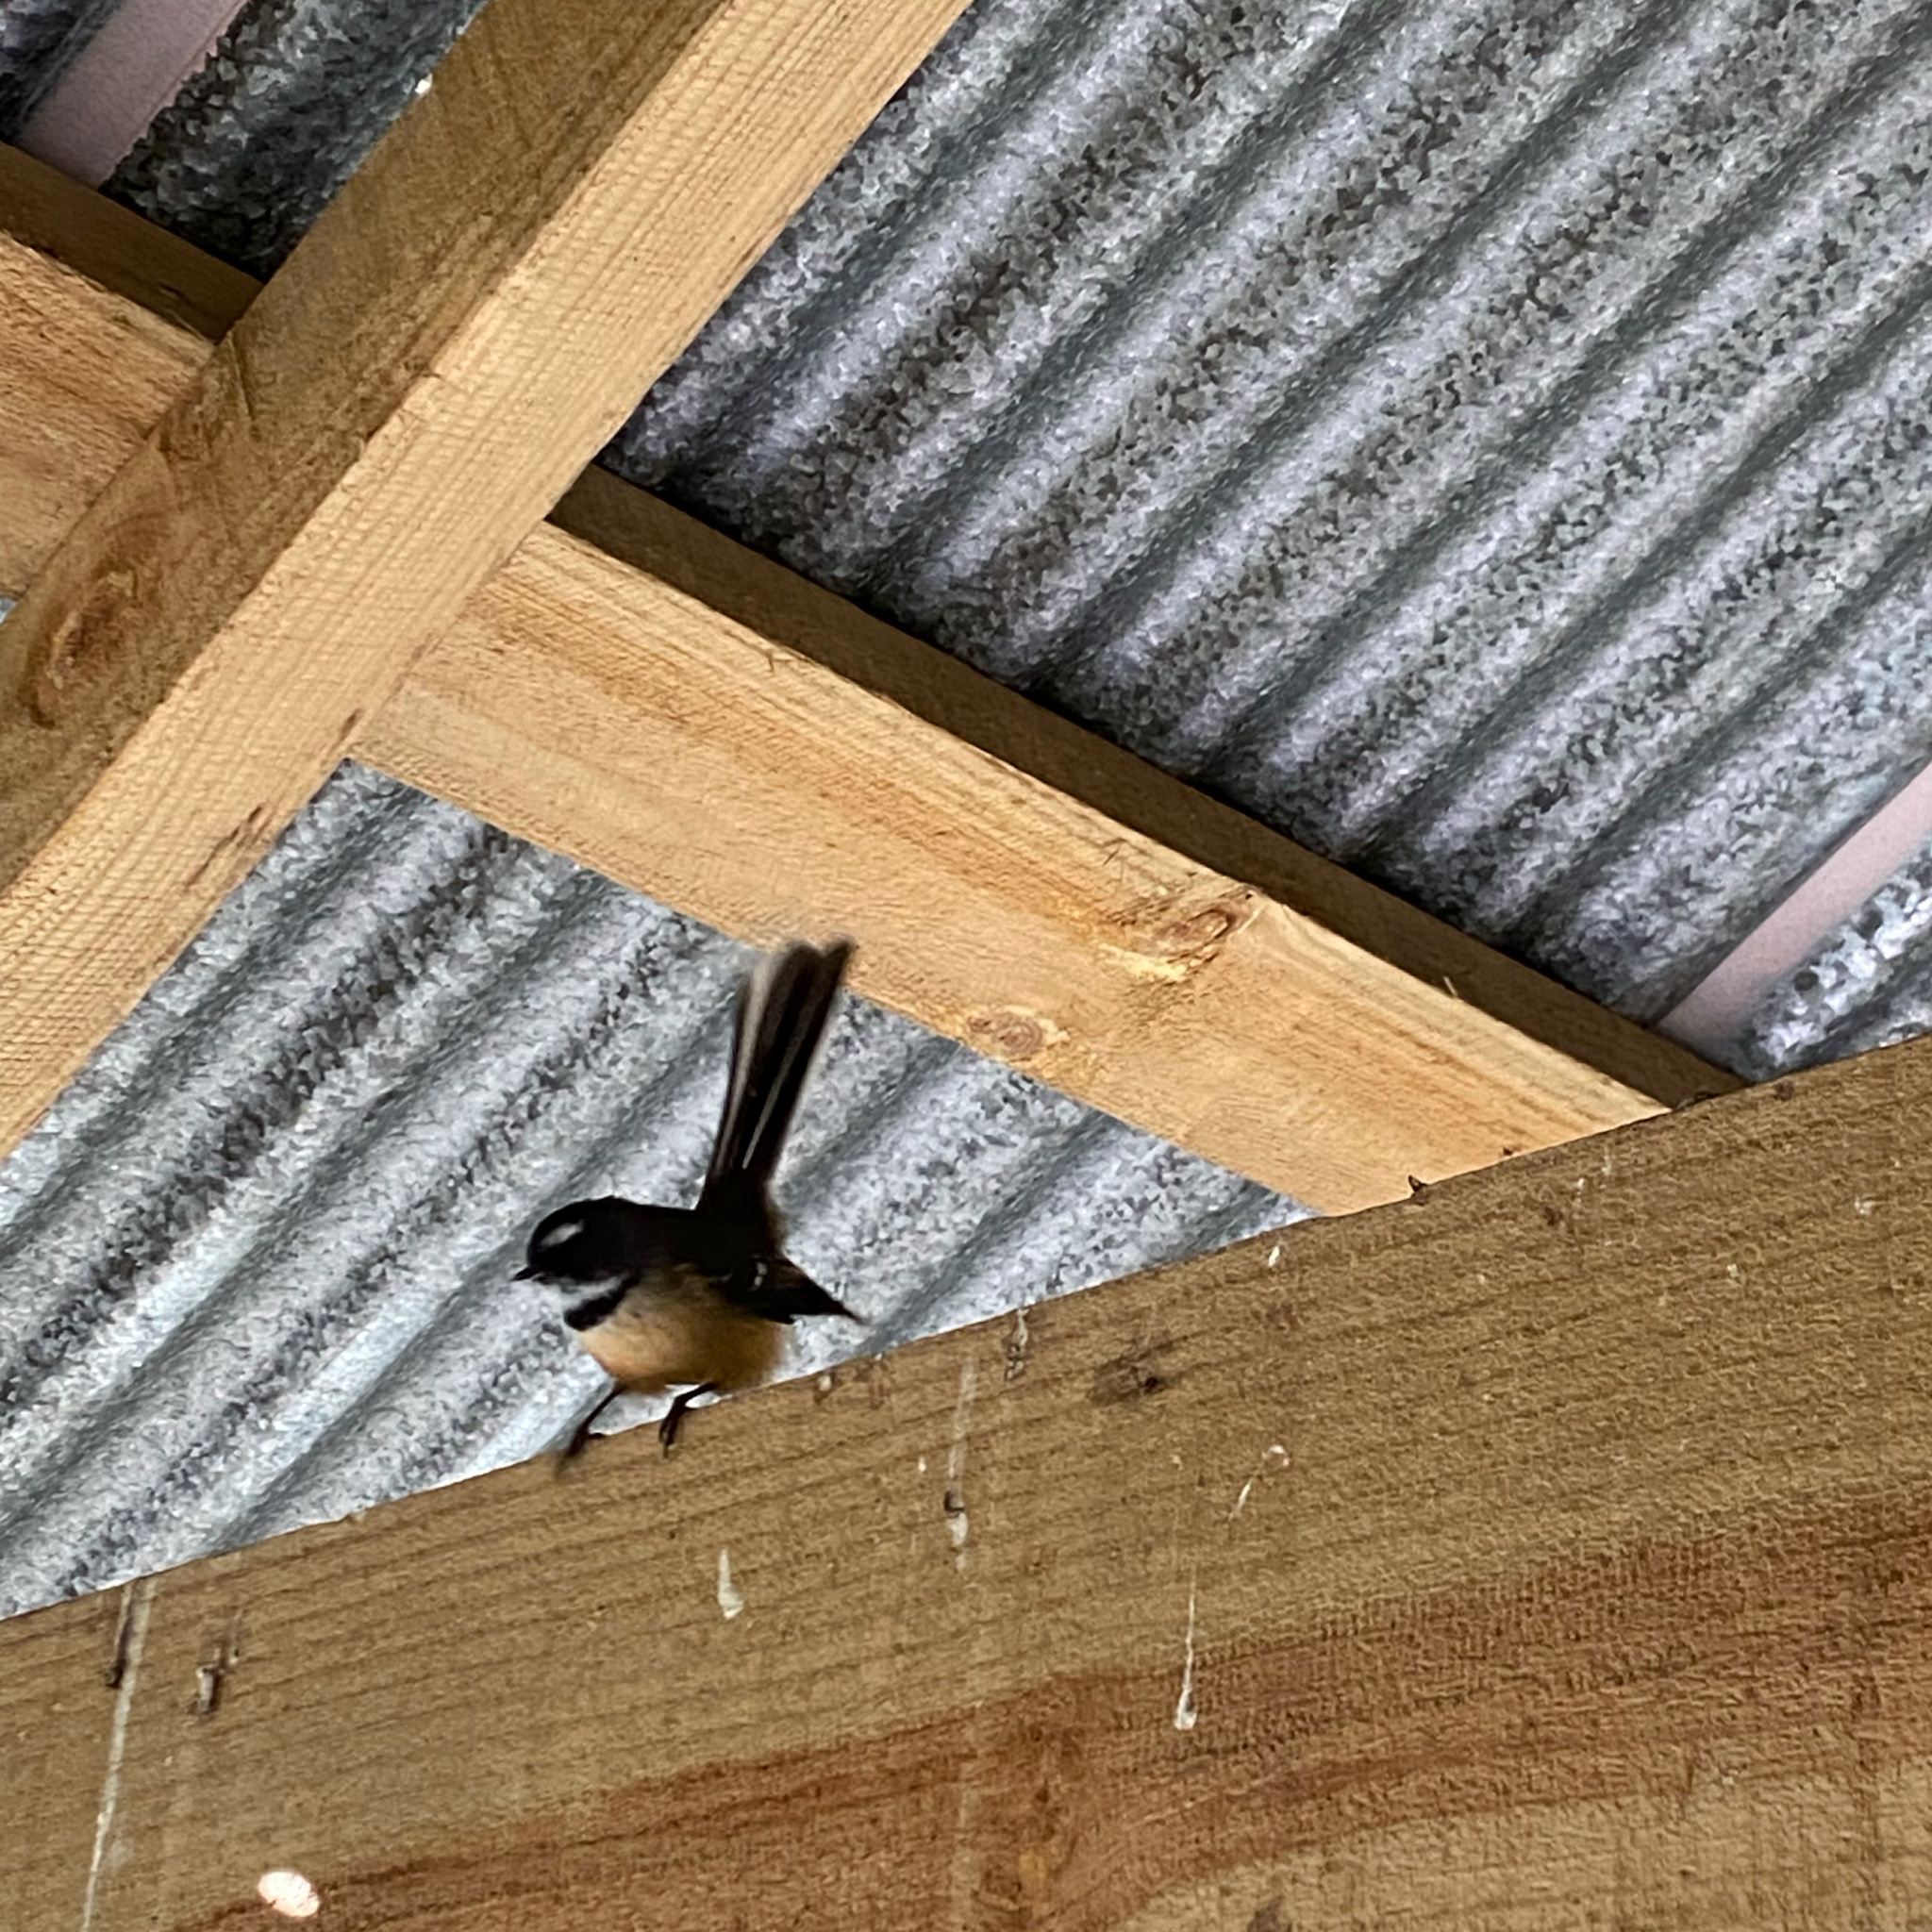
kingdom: Animalia
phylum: Chordata
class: Aves
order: Passeriformes
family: Rhipiduridae
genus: Rhipidura
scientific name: Rhipidura fuliginosa
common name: New zealand fantail
